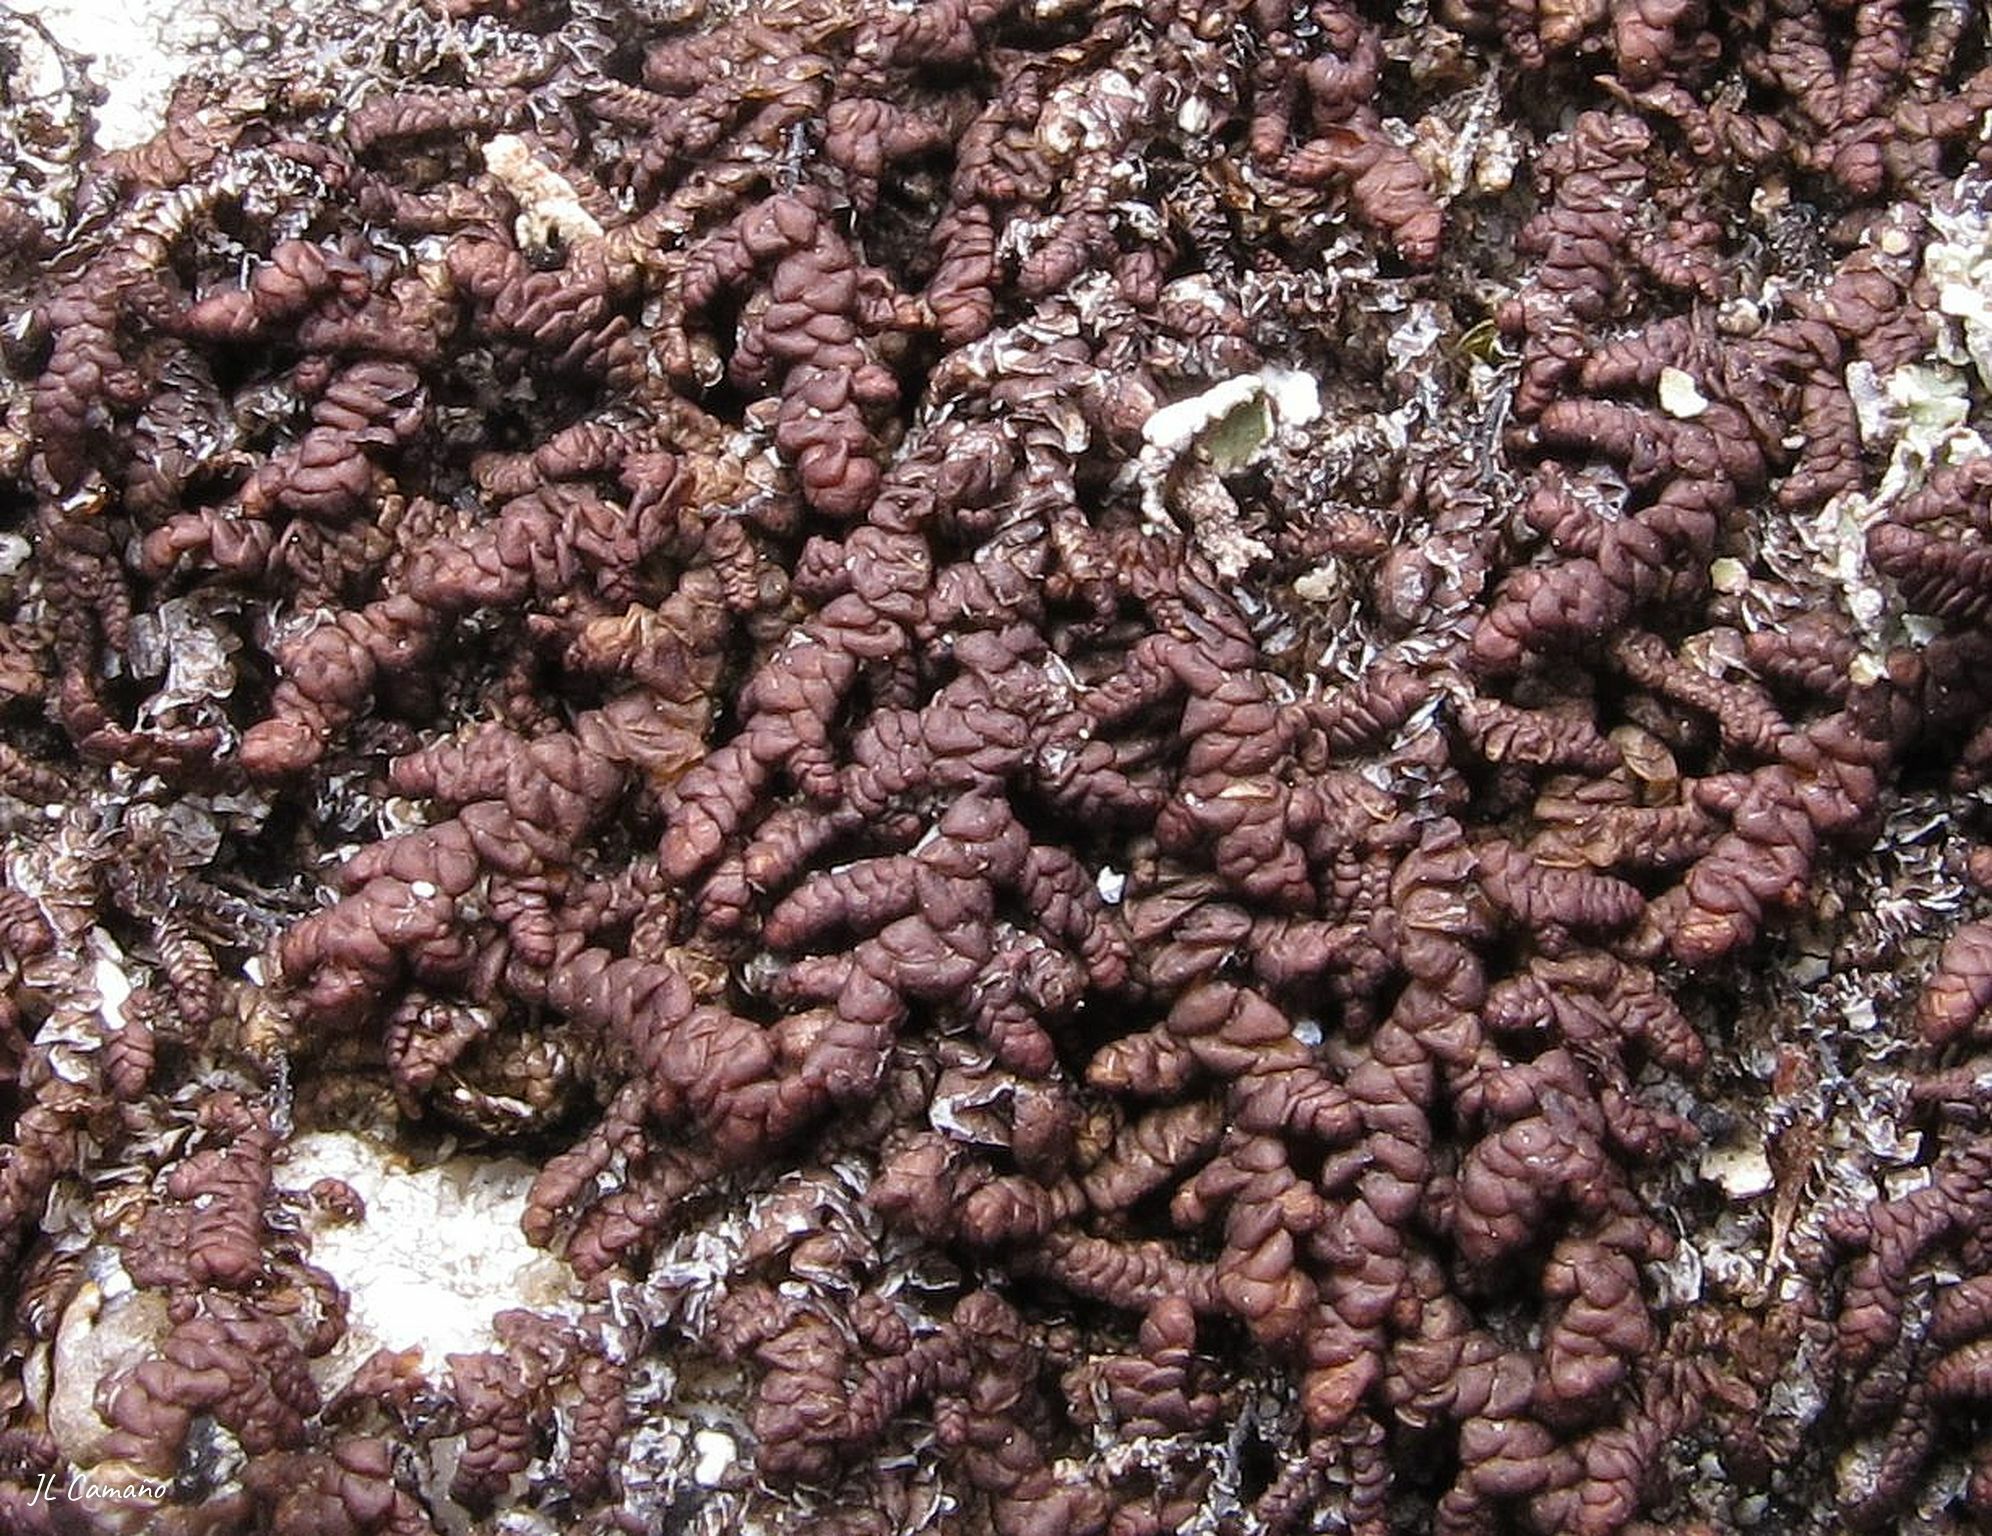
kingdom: Plantae
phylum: Marchantiophyta
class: Jungermanniopsida
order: Porellales
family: Frullaniaceae
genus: Frullania
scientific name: Frullania tamarisci
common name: Tamarisk scalewort
